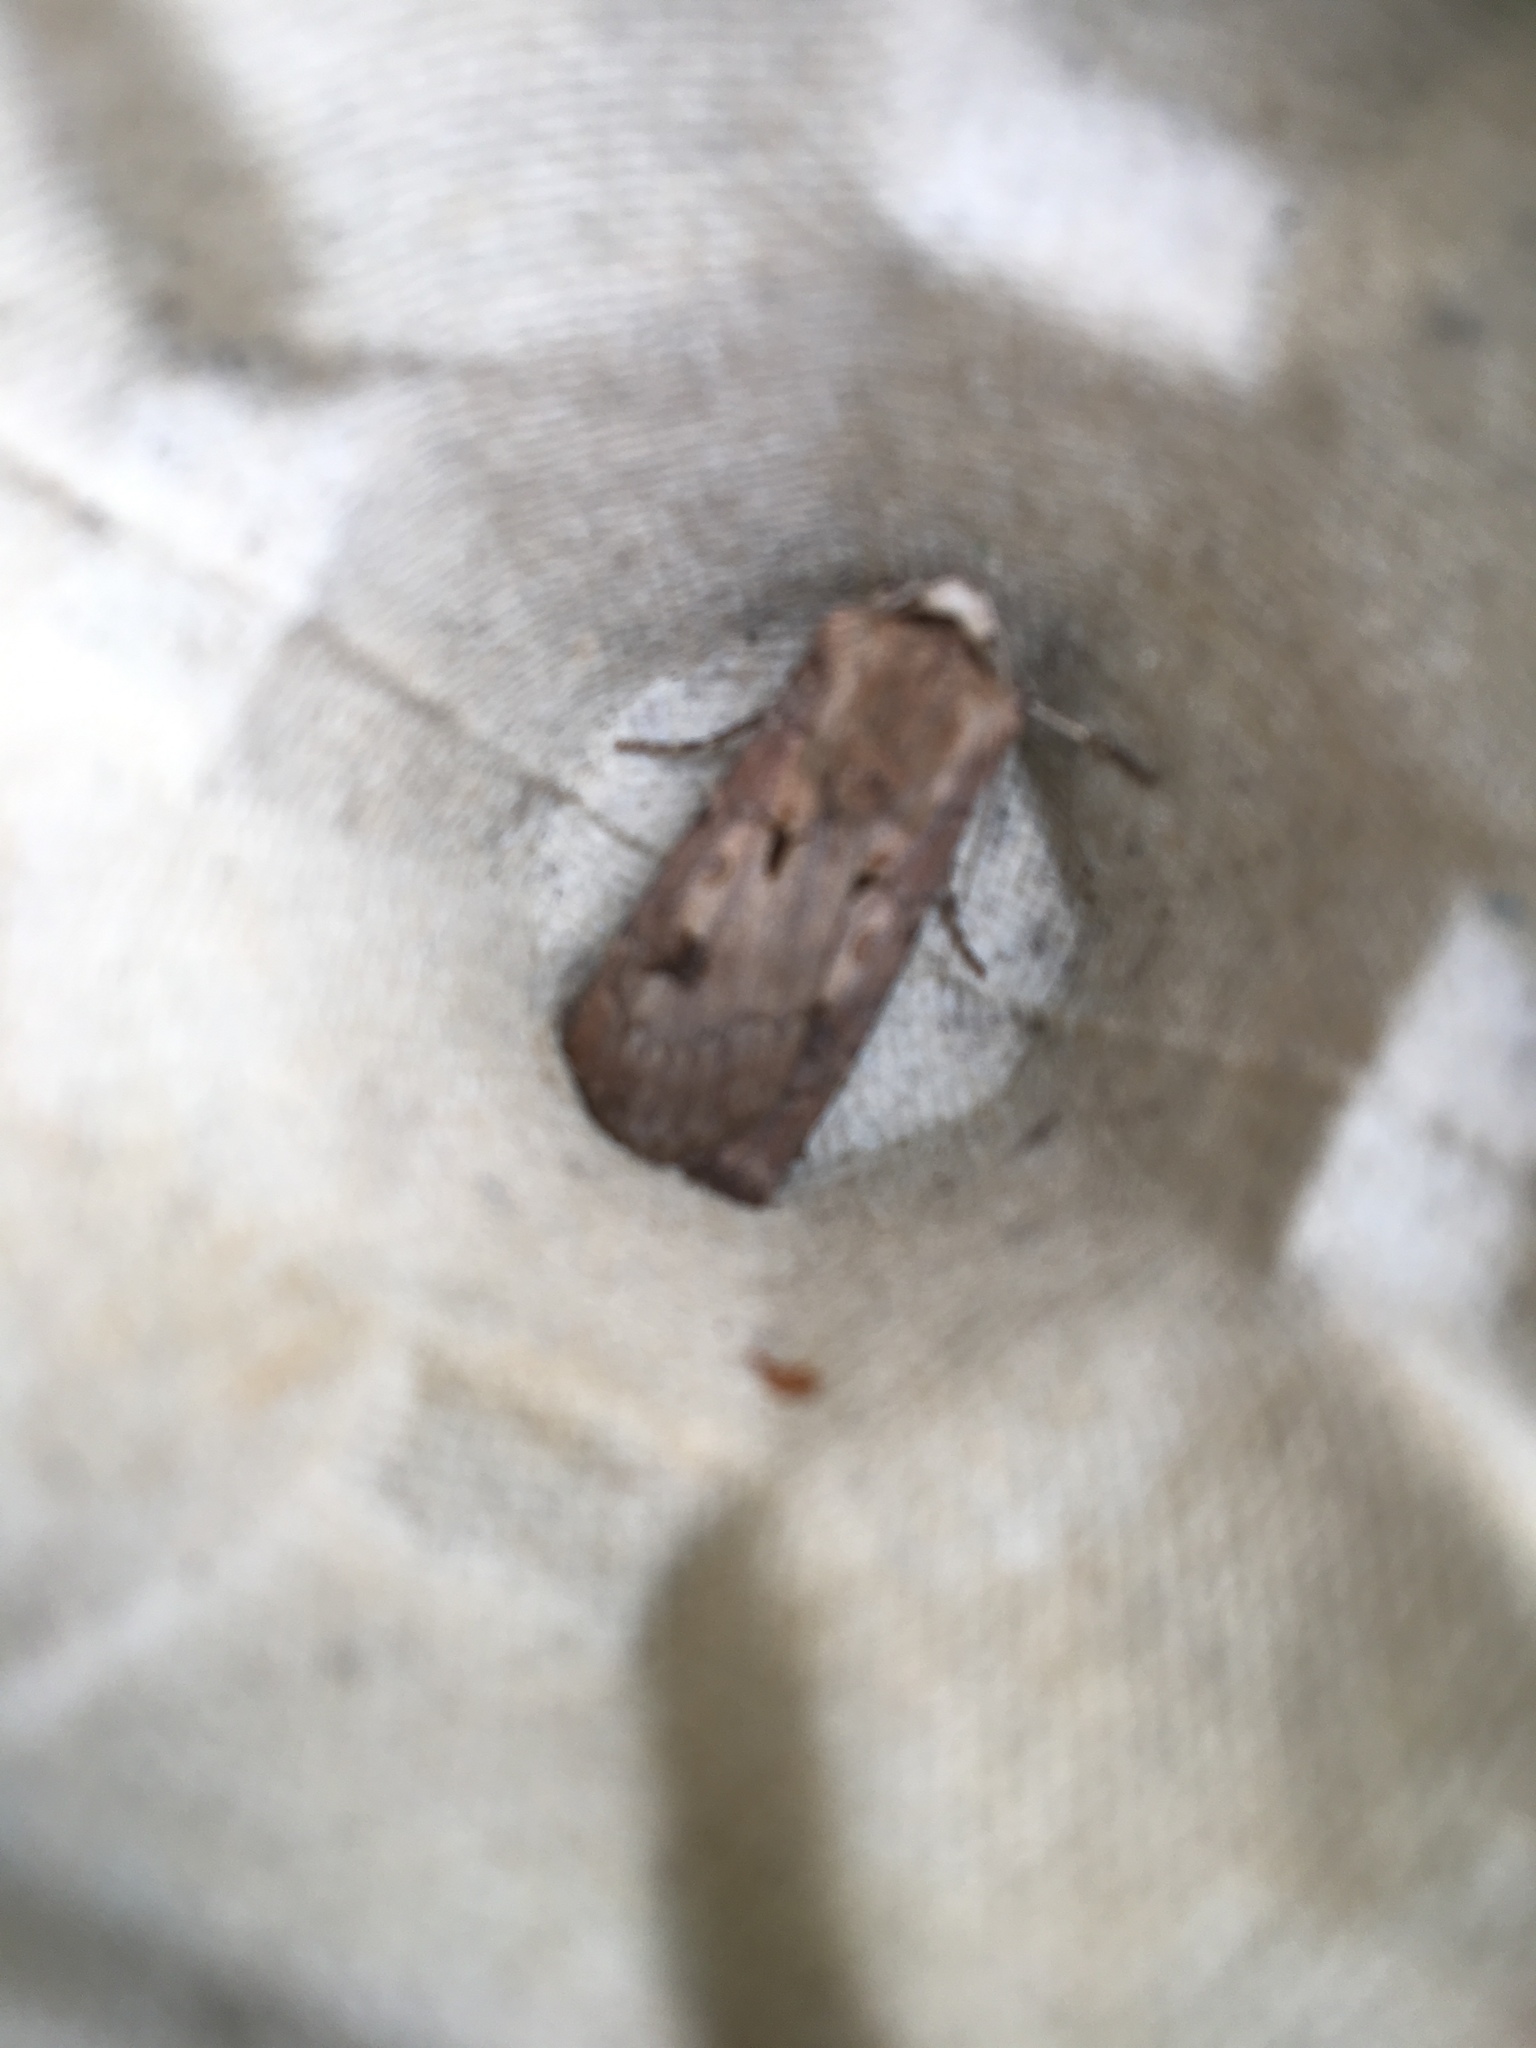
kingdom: Animalia
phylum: Arthropoda
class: Insecta
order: Lepidoptera
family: Noctuidae
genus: Agrotis
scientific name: Agrotis exclamationis
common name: Heart and dart
